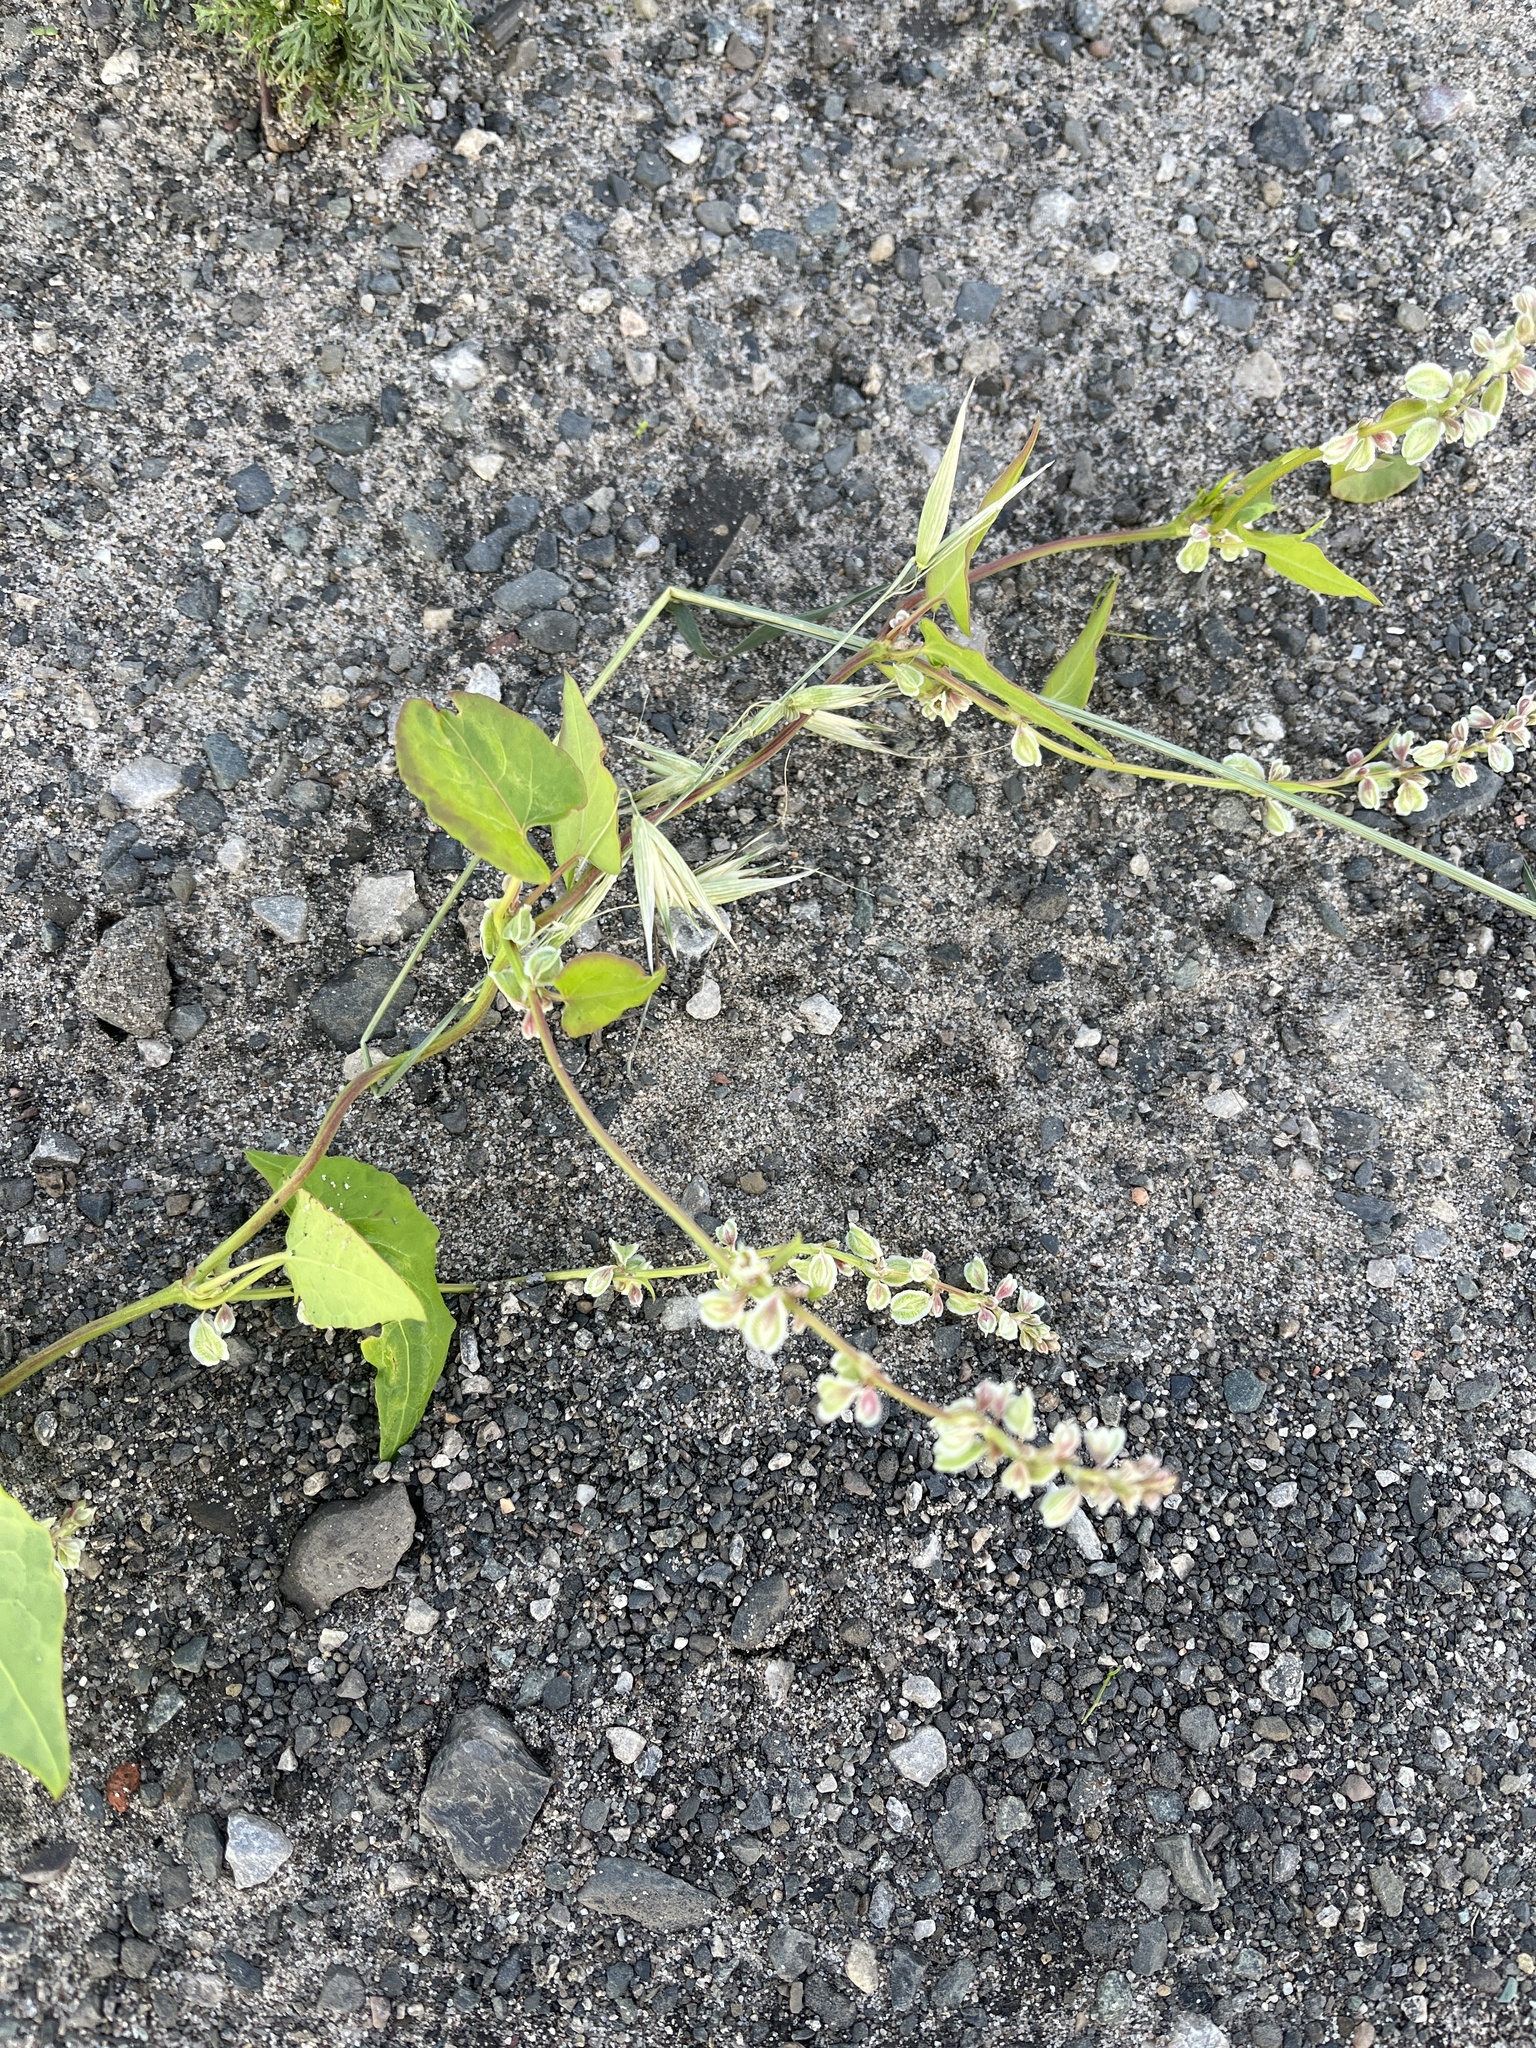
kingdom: Plantae
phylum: Tracheophyta
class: Magnoliopsida
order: Caryophyllales
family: Polygonaceae
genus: Fallopia
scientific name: Fallopia convolvulus
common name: Black bindweed
